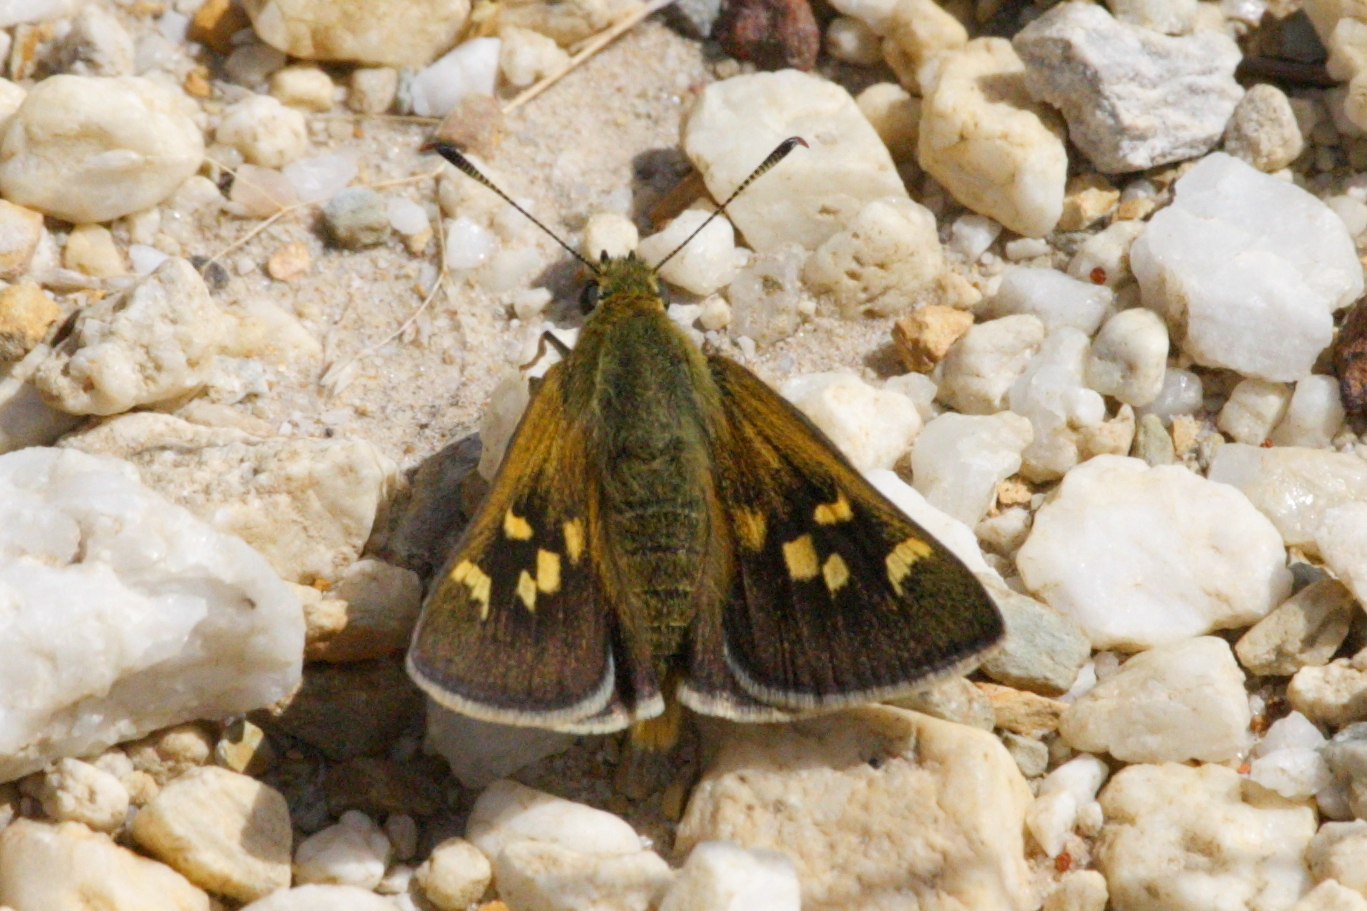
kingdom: Animalia
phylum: Arthropoda
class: Insecta
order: Lepidoptera
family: Hesperiidae
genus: Trapezites
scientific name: Trapezites lutea
